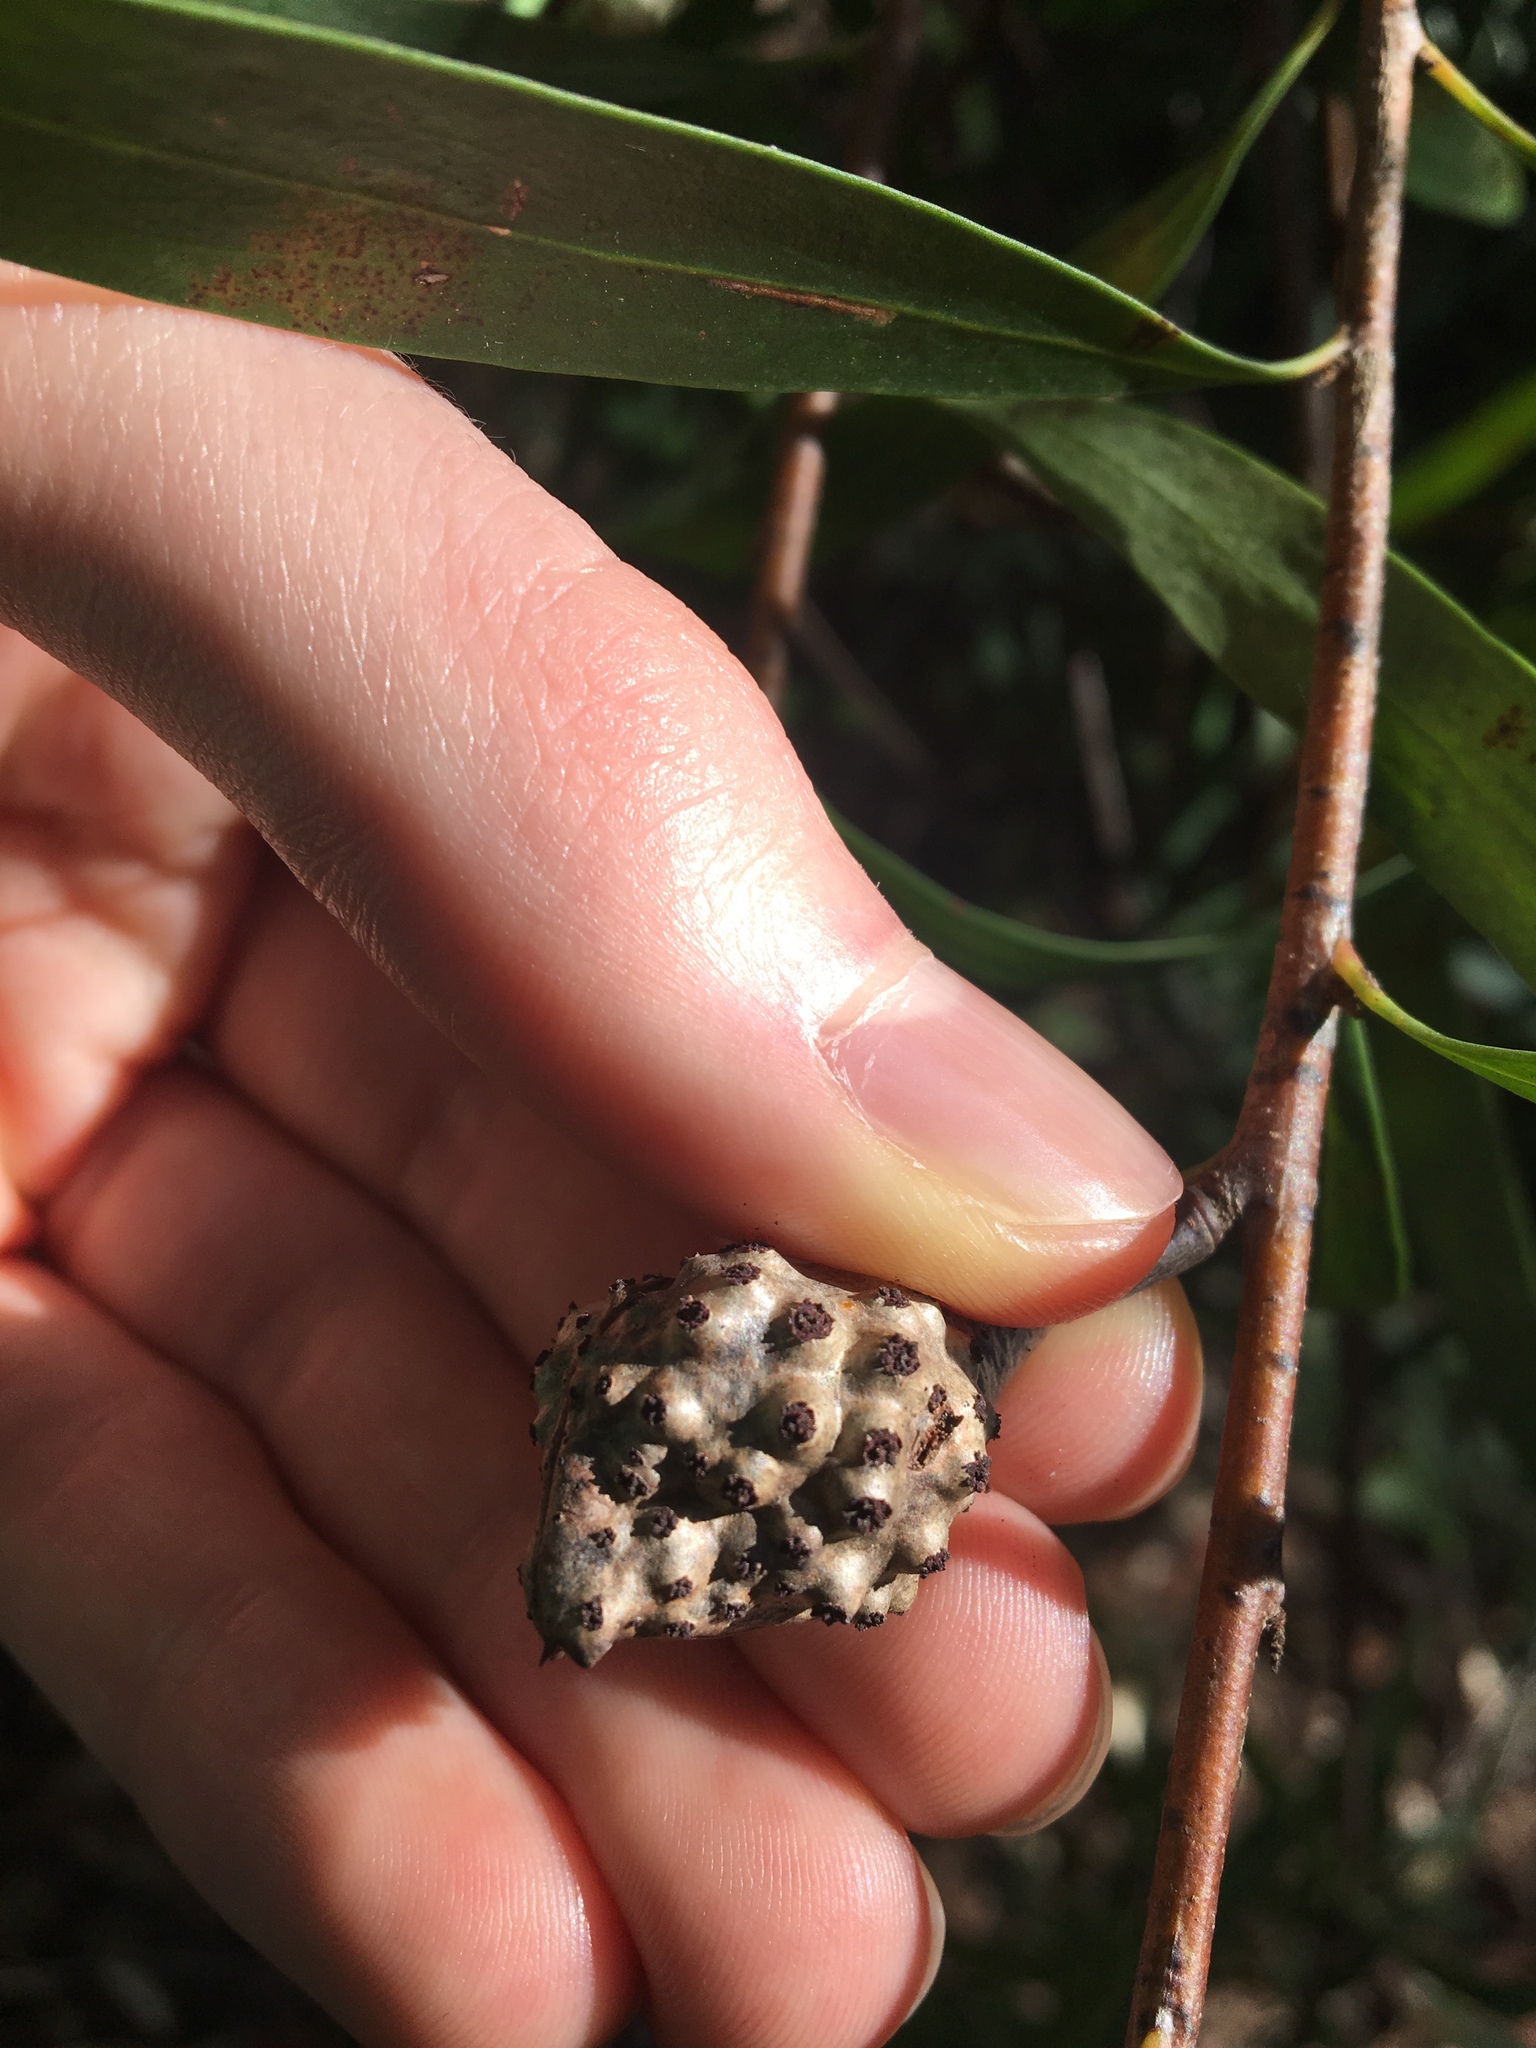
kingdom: Plantae
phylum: Tracheophyta
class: Magnoliopsida
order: Proteales
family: Proteaceae
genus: Hakea
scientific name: Hakea salicifolia
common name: Willow hakea
